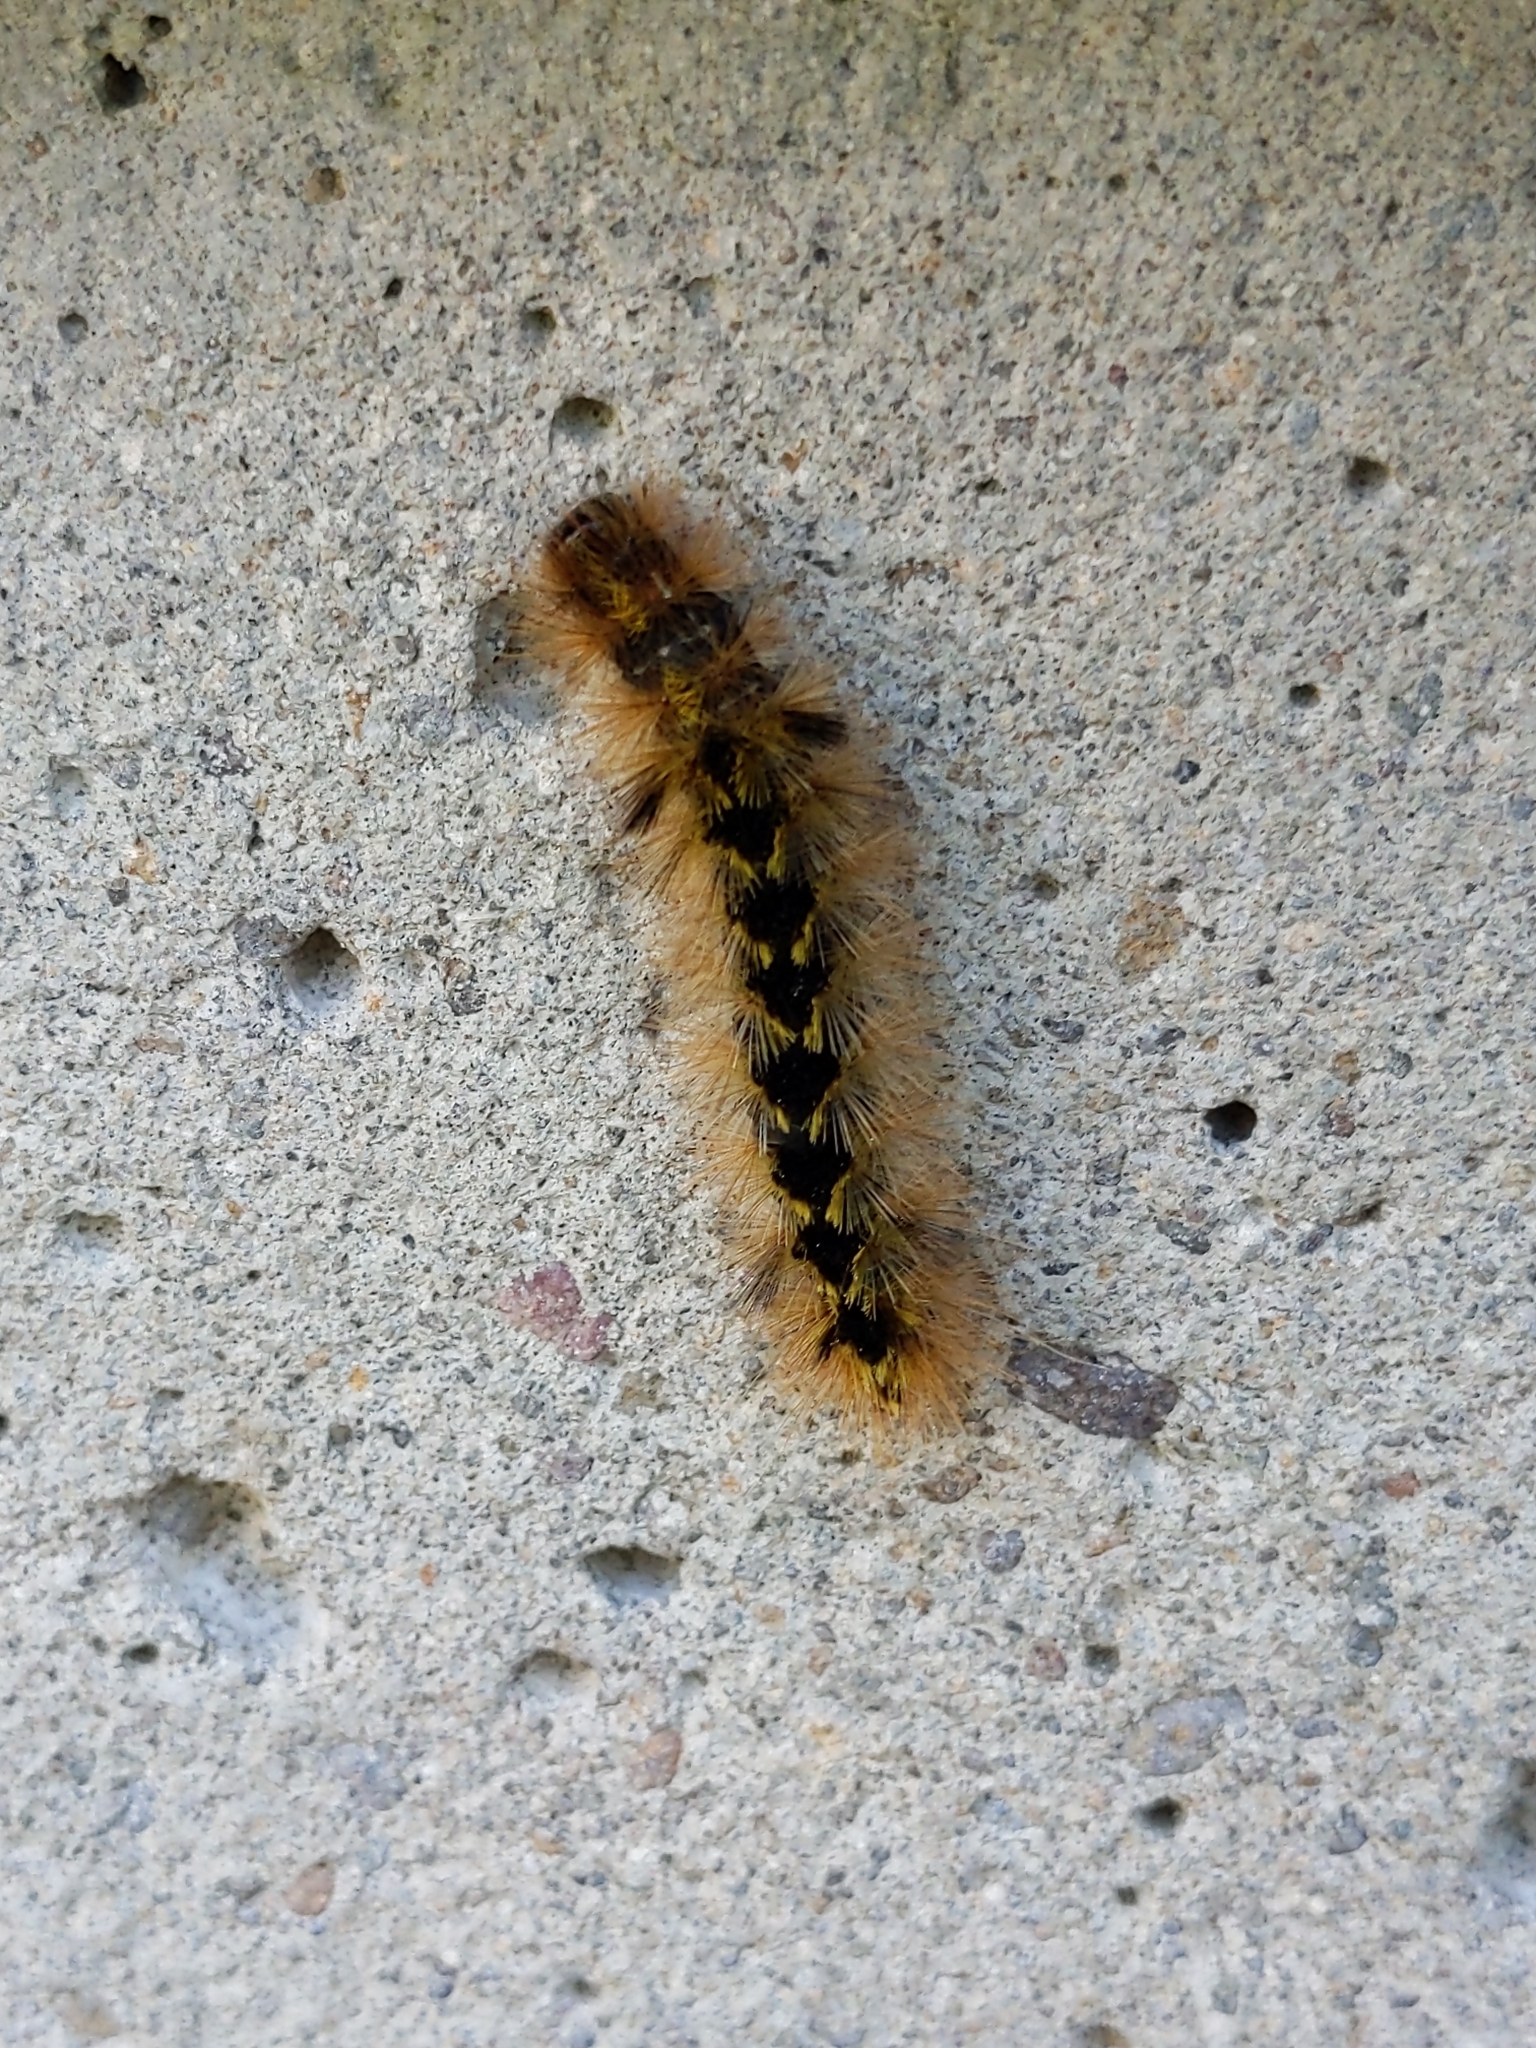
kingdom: Animalia
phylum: Arthropoda
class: Insecta
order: Lepidoptera
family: Erebidae
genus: Lophocampa
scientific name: Lophocampa argentata
